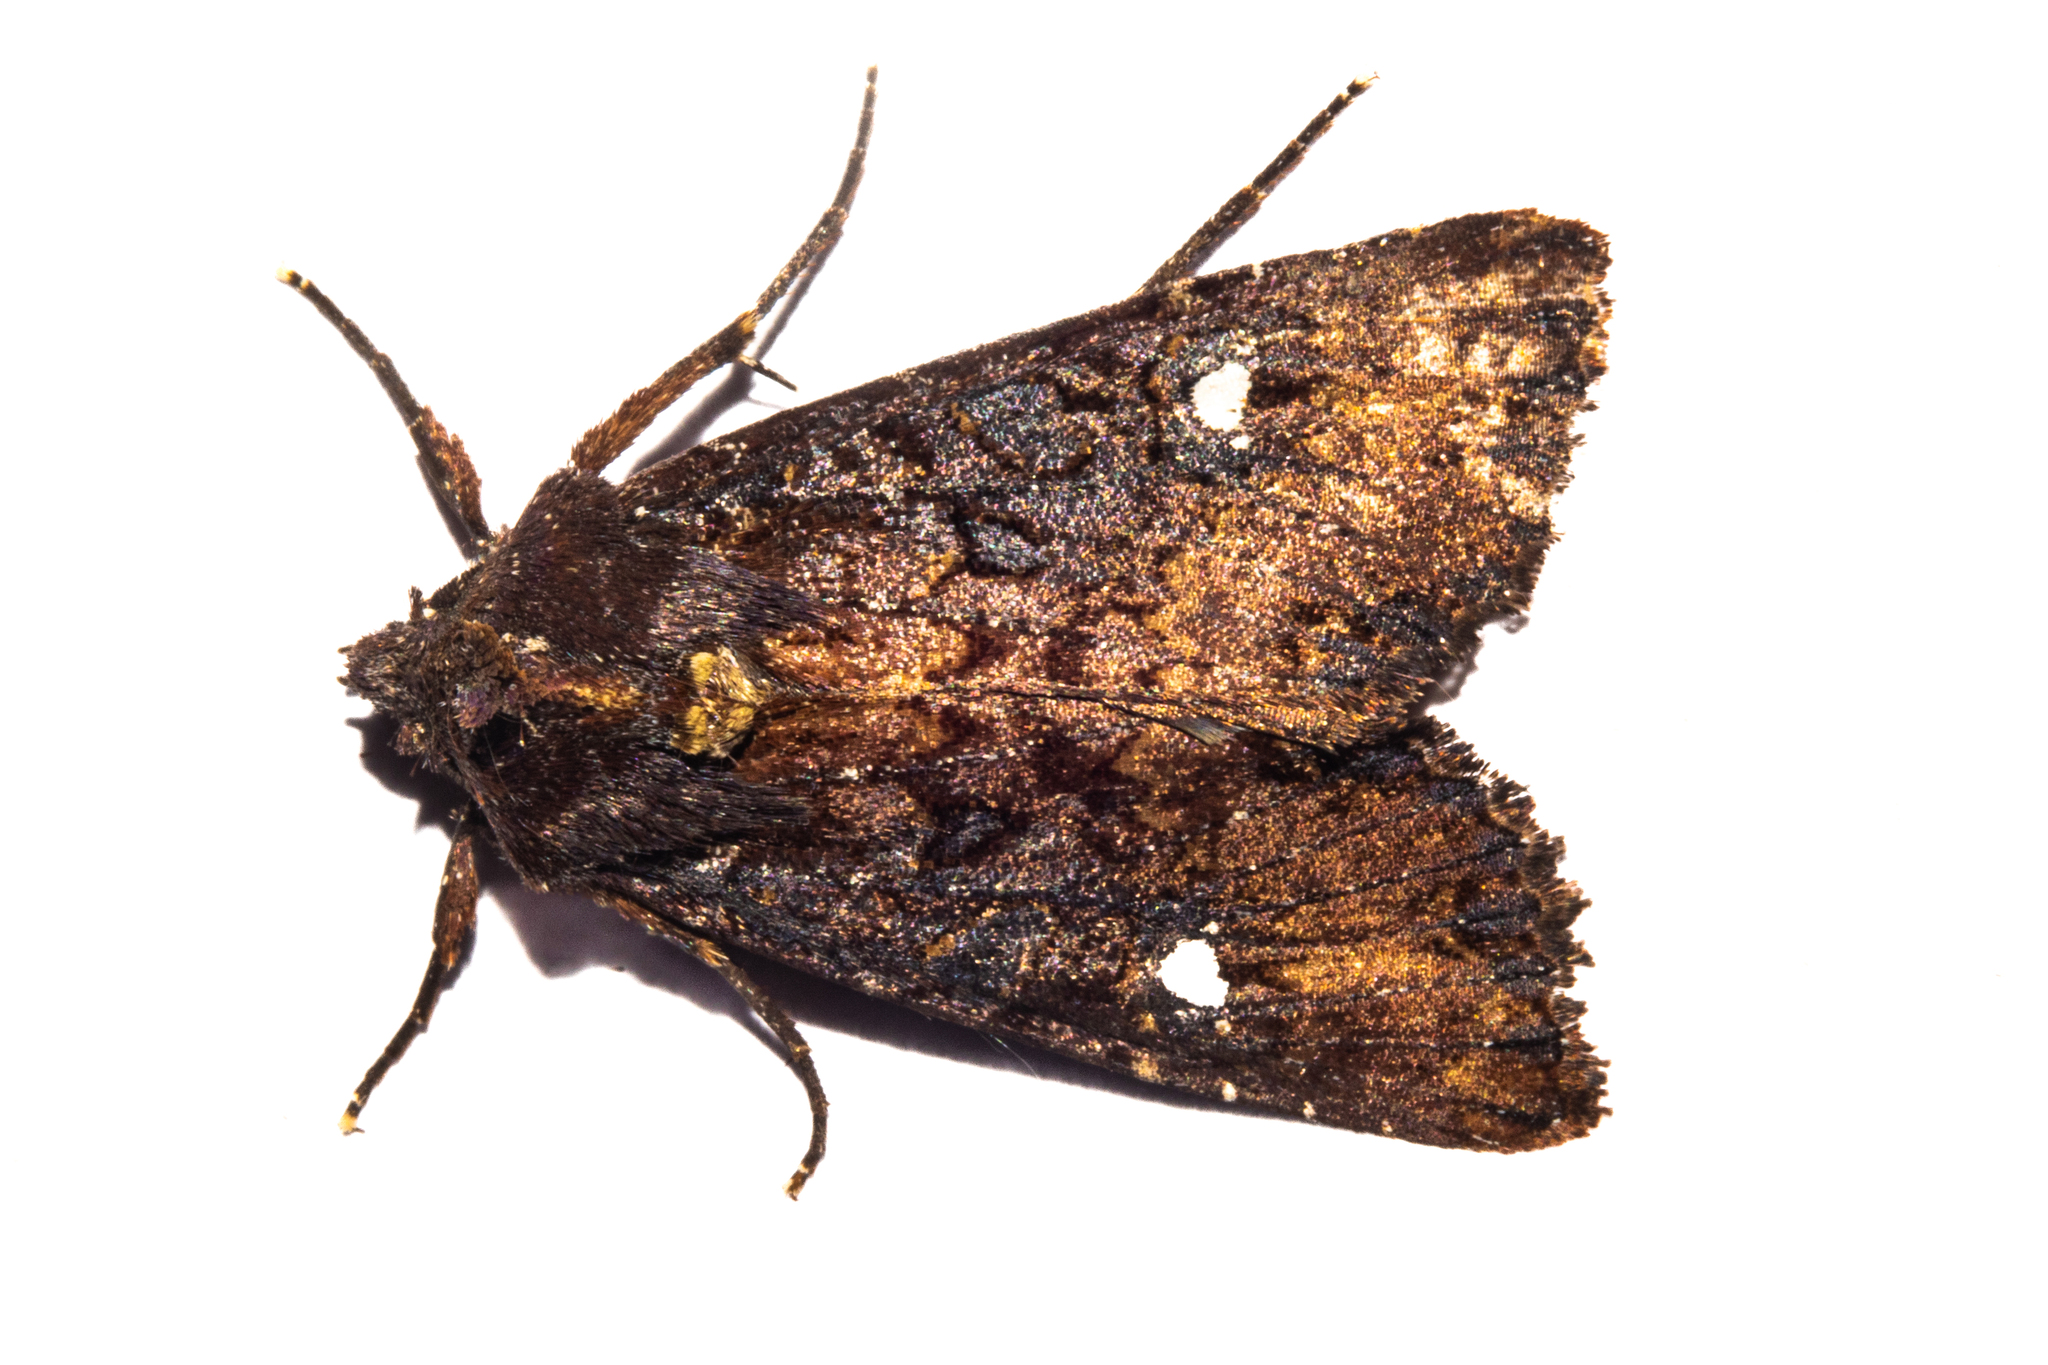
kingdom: Animalia
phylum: Arthropoda
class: Insecta
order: Lepidoptera
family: Noctuidae
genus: Meterana
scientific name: Meterana vitiosa
